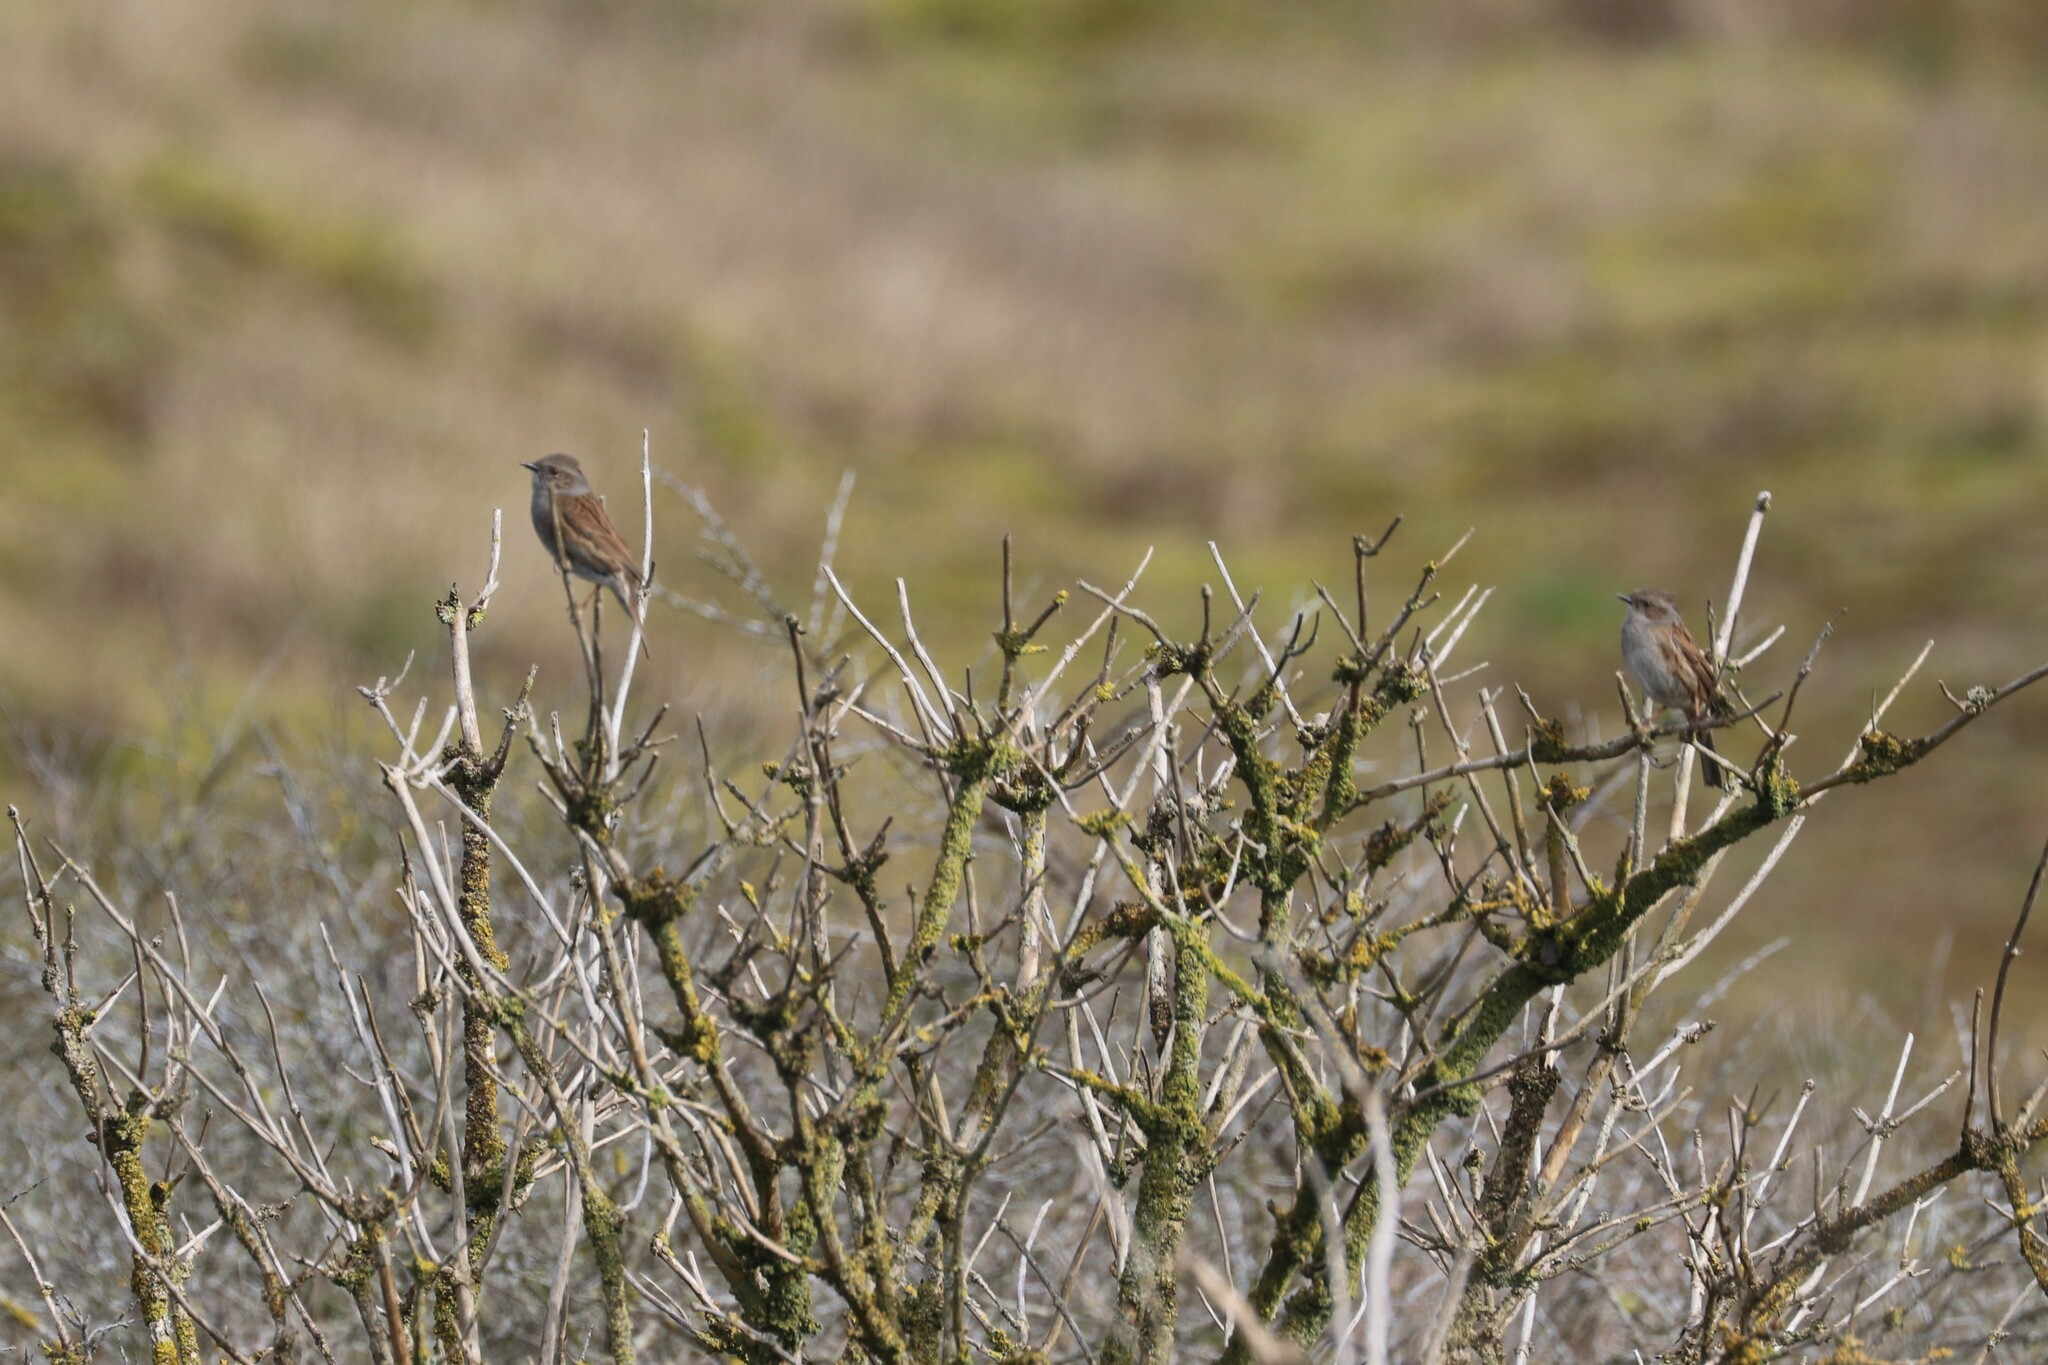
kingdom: Animalia
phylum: Chordata
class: Aves
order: Passeriformes
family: Prunellidae
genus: Prunella
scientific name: Prunella modularis
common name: Dunnock
